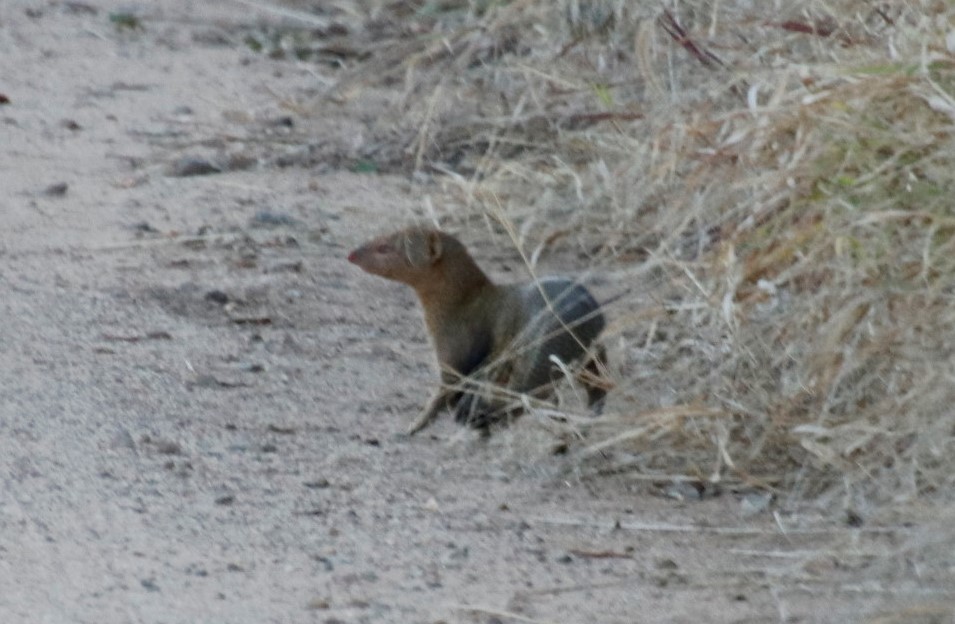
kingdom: Animalia
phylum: Chordata
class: Mammalia
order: Carnivora
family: Herpestidae
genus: Galerella
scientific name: Galerella sanguinea
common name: Slender mongoose
